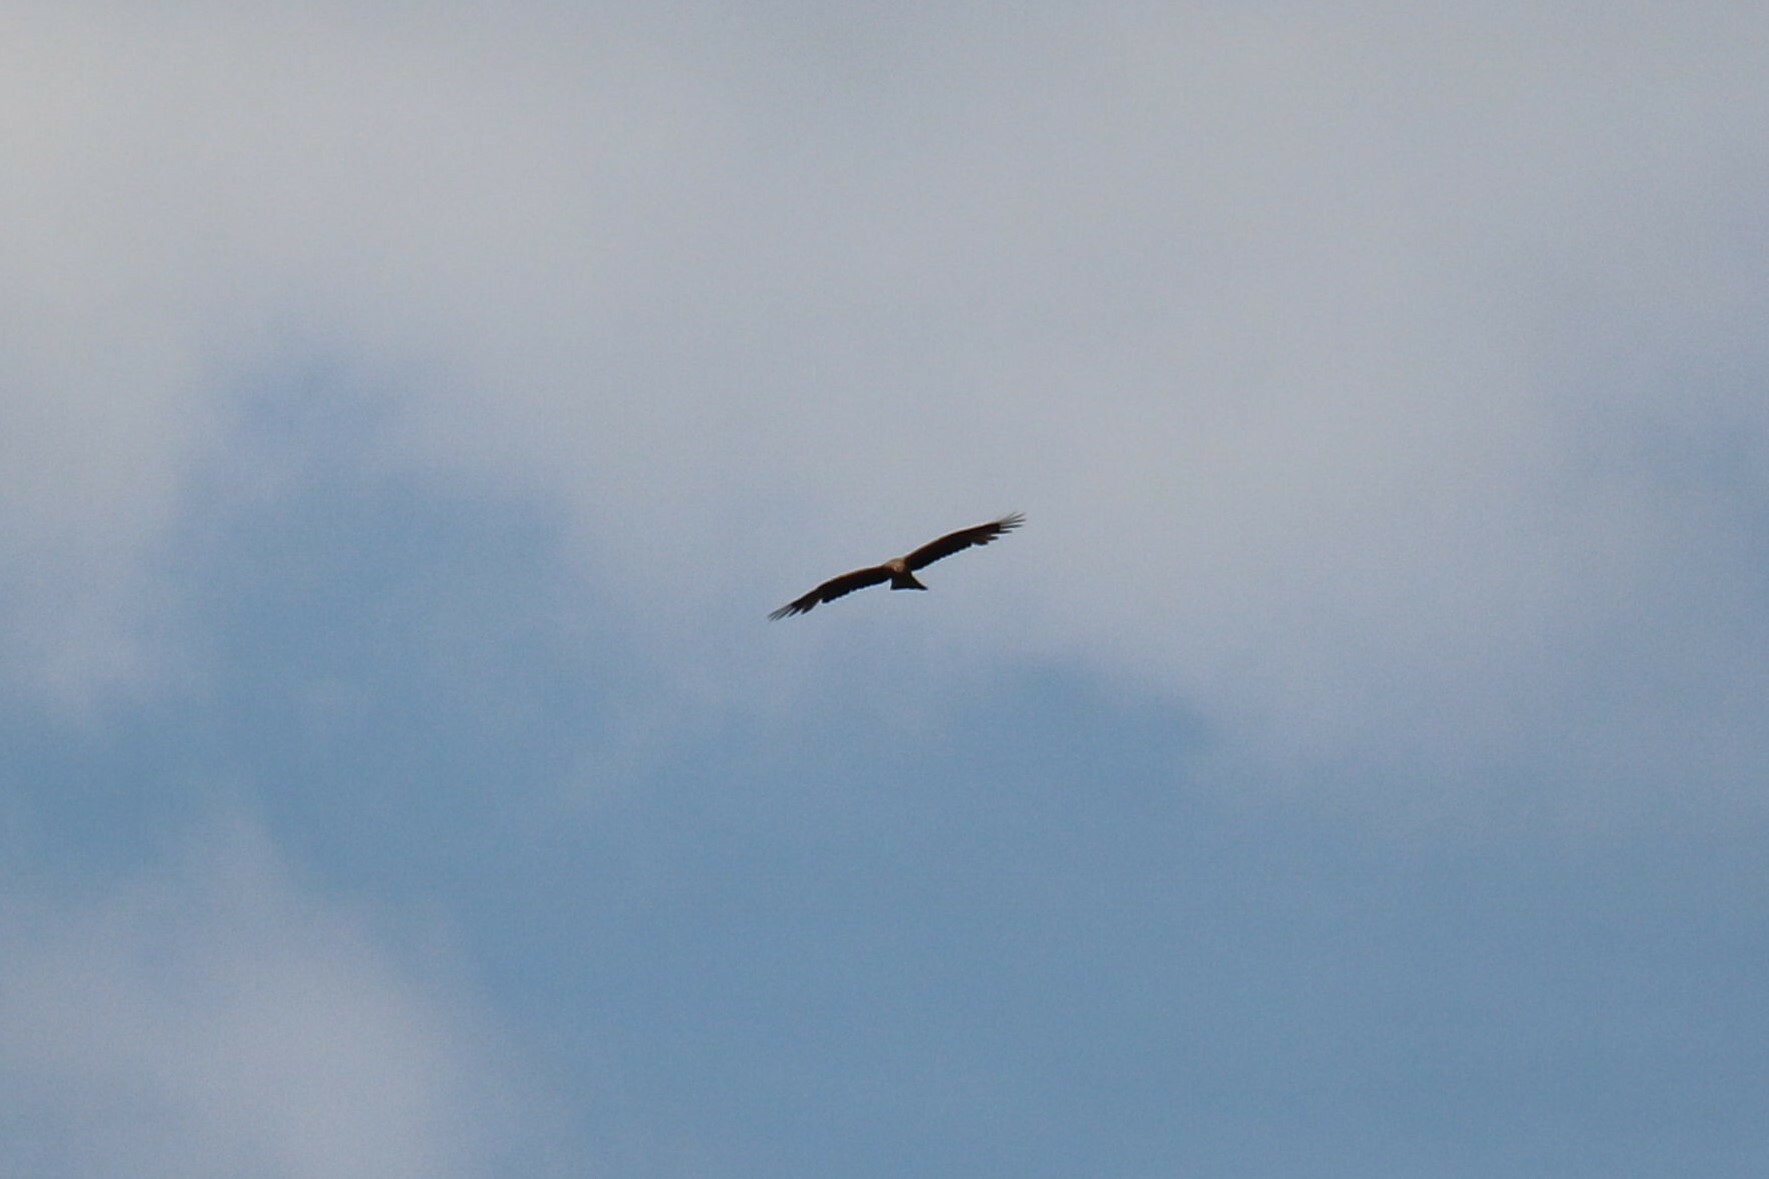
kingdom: Animalia
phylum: Chordata
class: Aves
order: Accipitriformes
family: Accipitridae
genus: Milvus
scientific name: Milvus migrans
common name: Black kite
